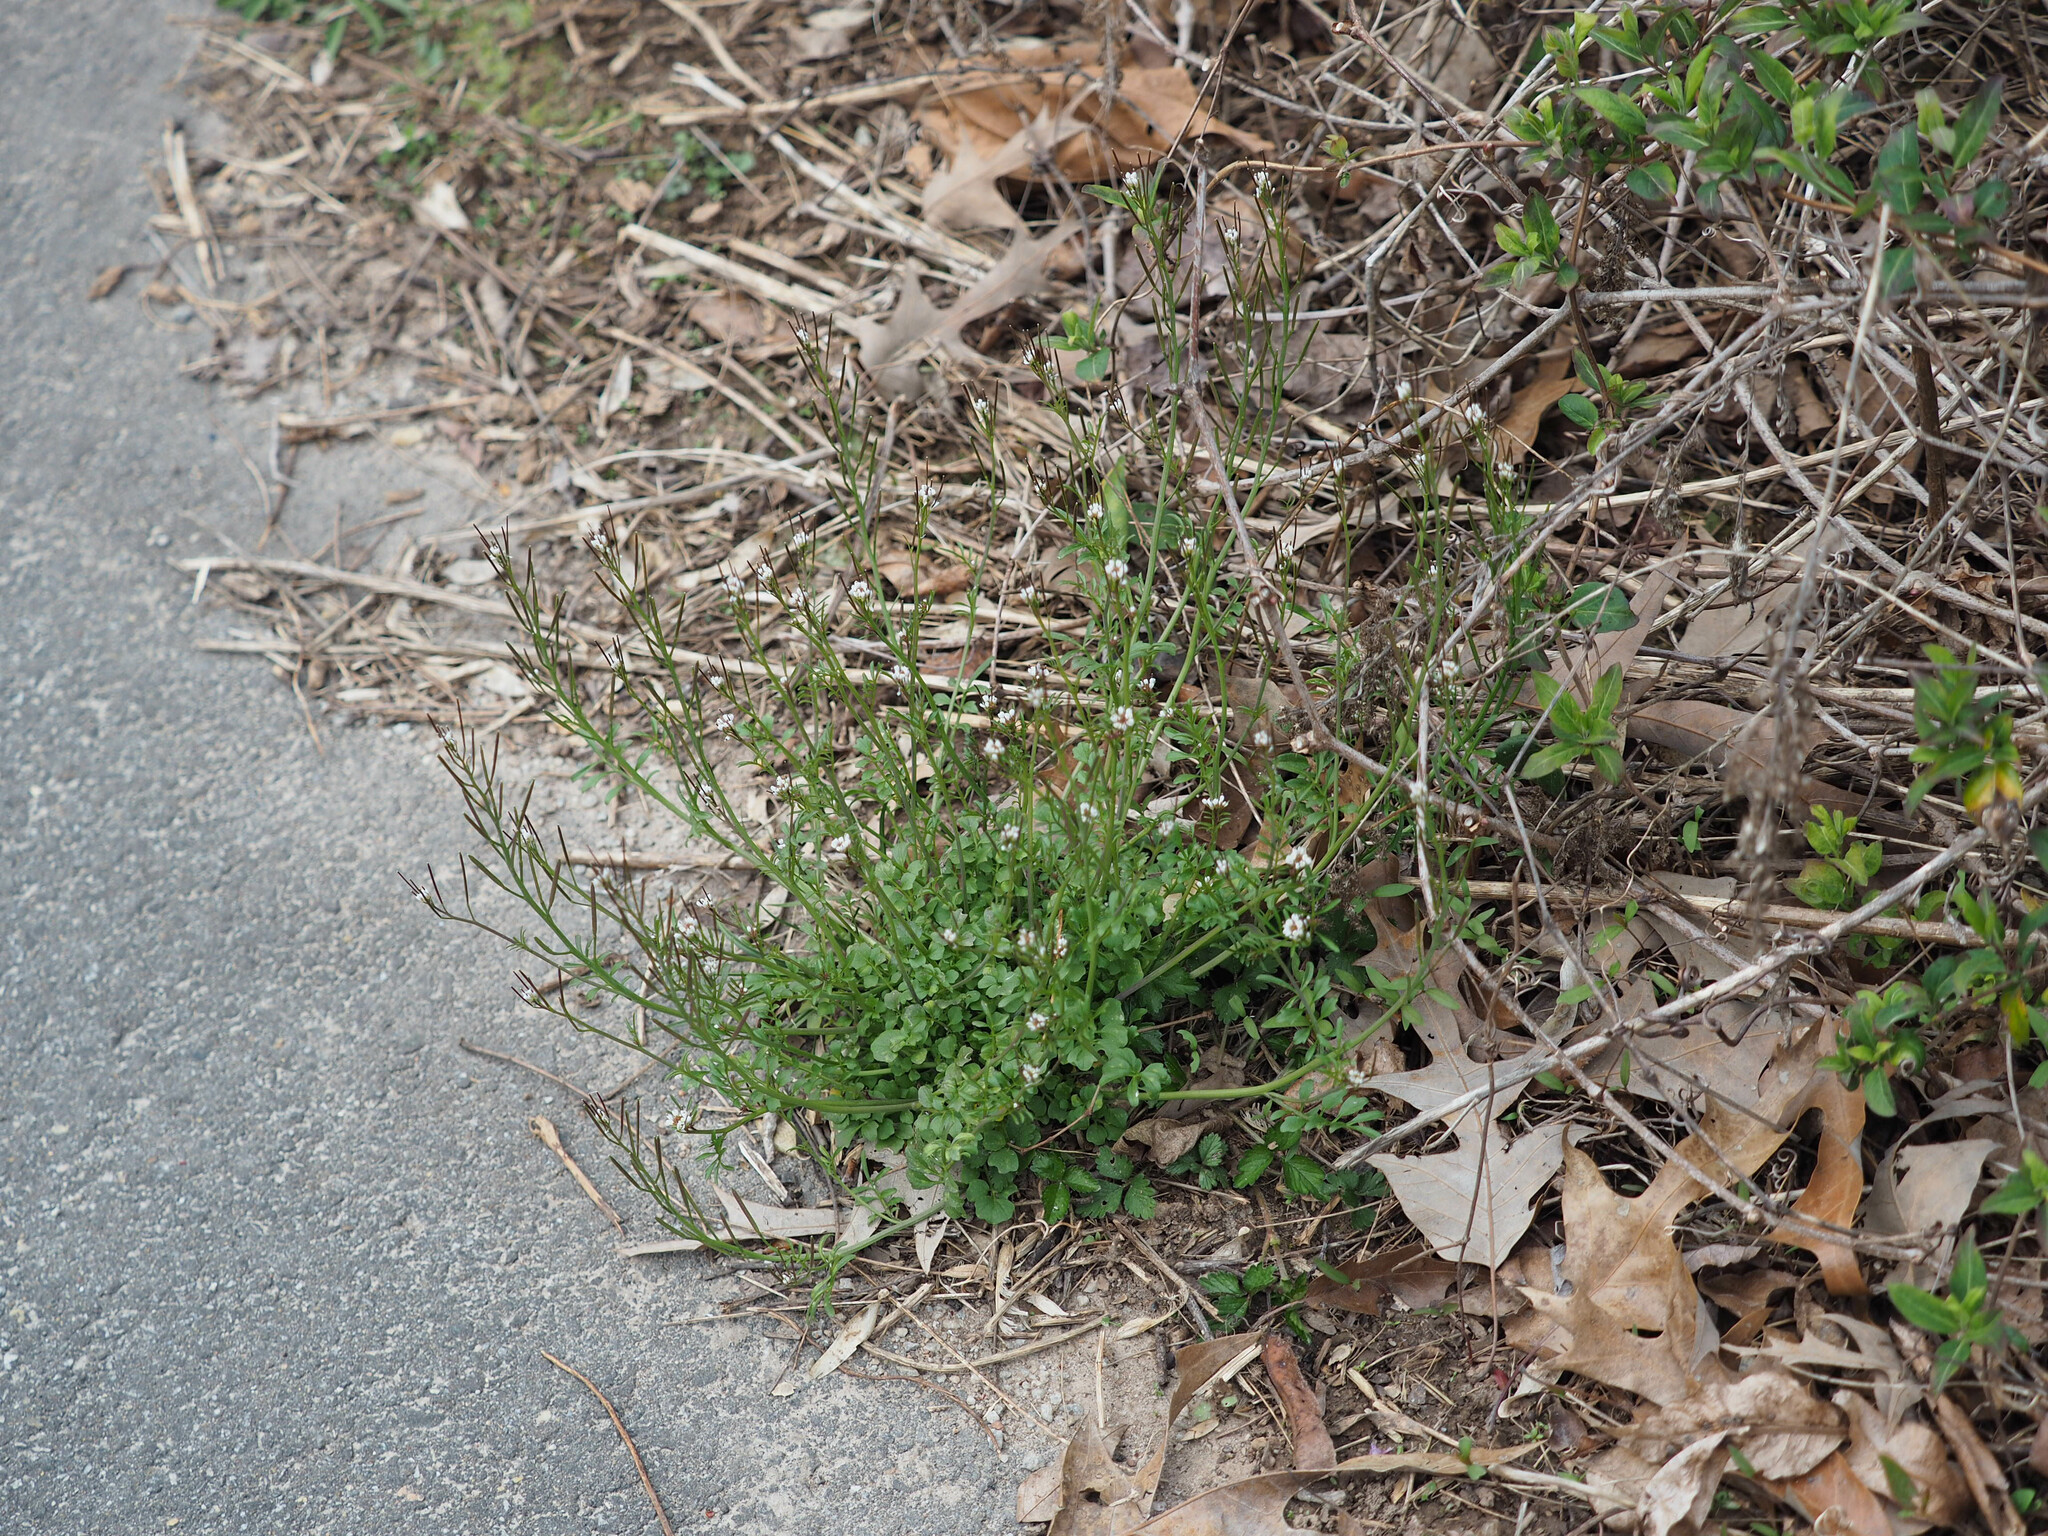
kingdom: Plantae
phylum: Tracheophyta
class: Magnoliopsida
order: Brassicales
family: Brassicaceae
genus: Cardamine
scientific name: Cardamine hirsuta
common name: Hairy bittercress
